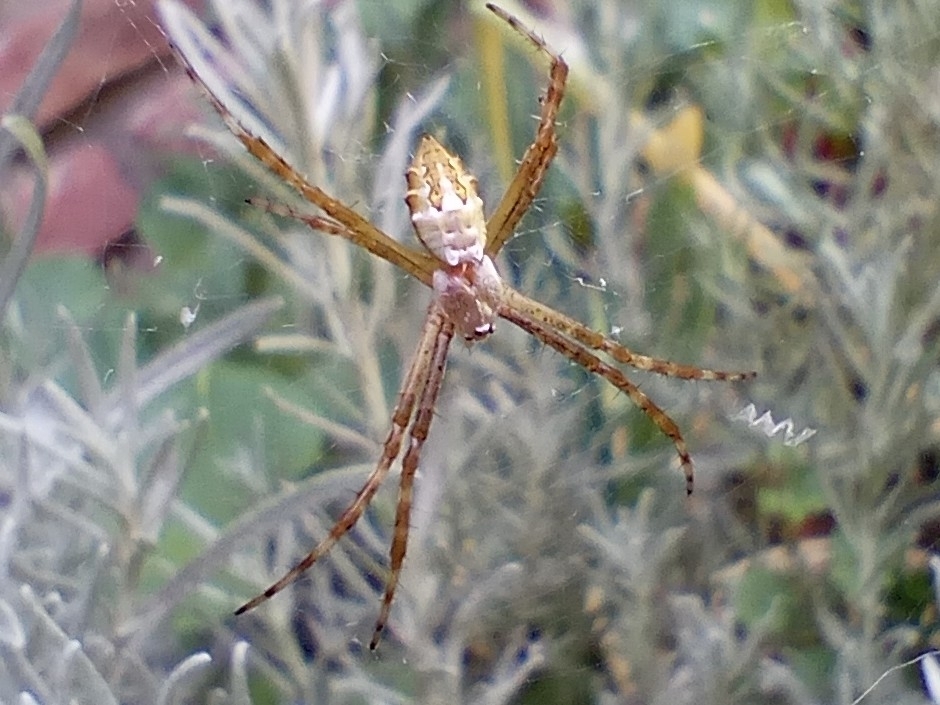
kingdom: Animalia
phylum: Arthropoda
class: Arachnida
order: Araneae
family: Araneidae
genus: Argiope
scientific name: Argiope argentata
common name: Orb weavers
